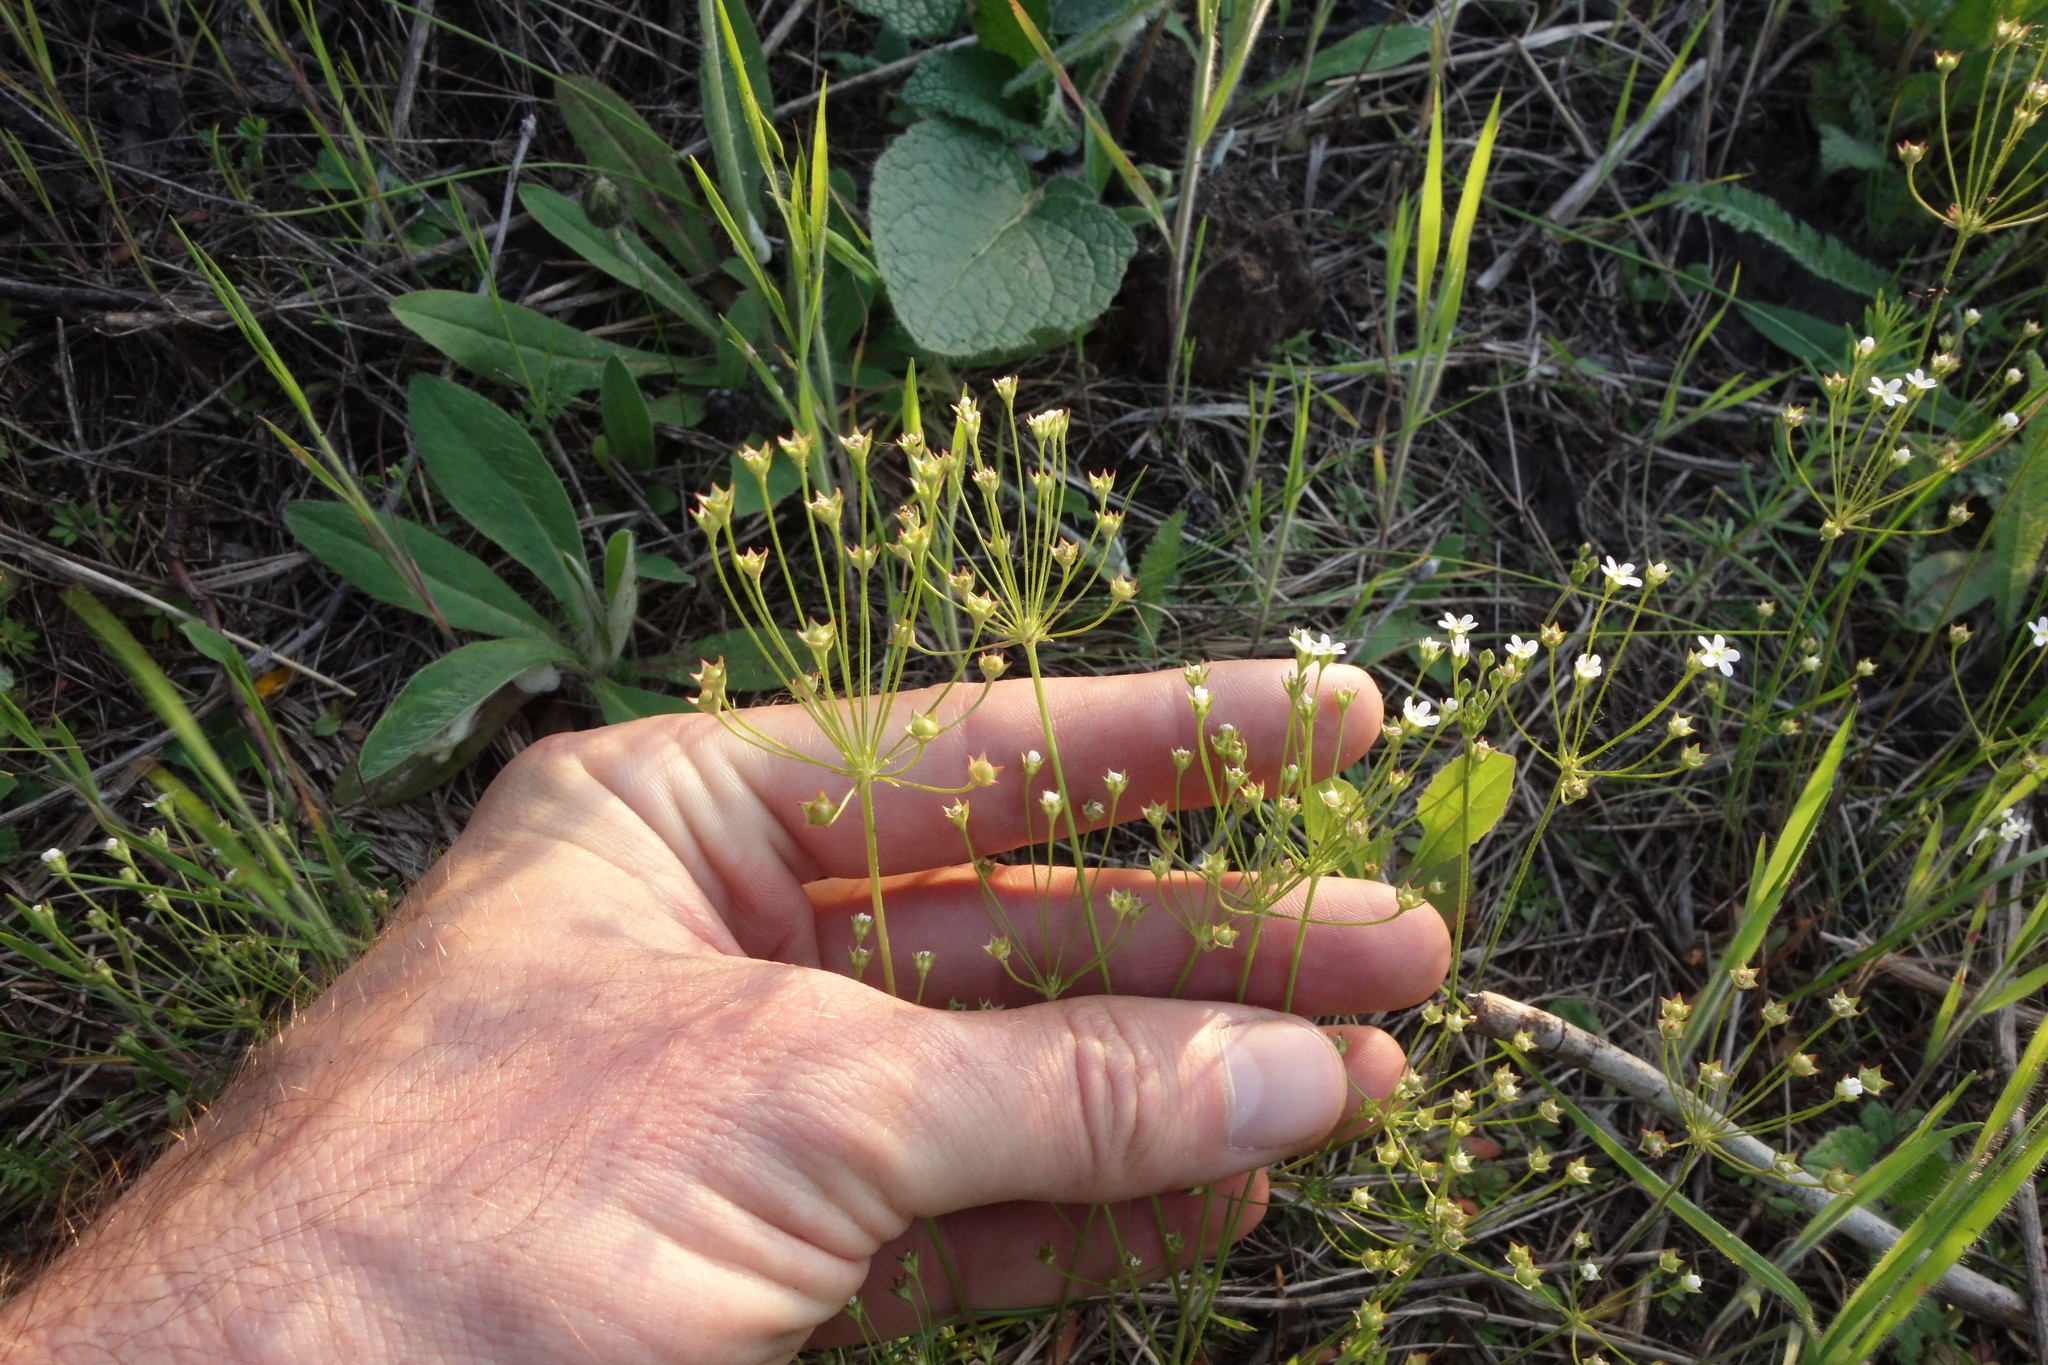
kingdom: Plantae
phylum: Tracheophyta
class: Magnoliopsida
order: Ericales
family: Primulaceae
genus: Androsace
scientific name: Androsace septentrionalis
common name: Hairy northern fairy-candelabra
